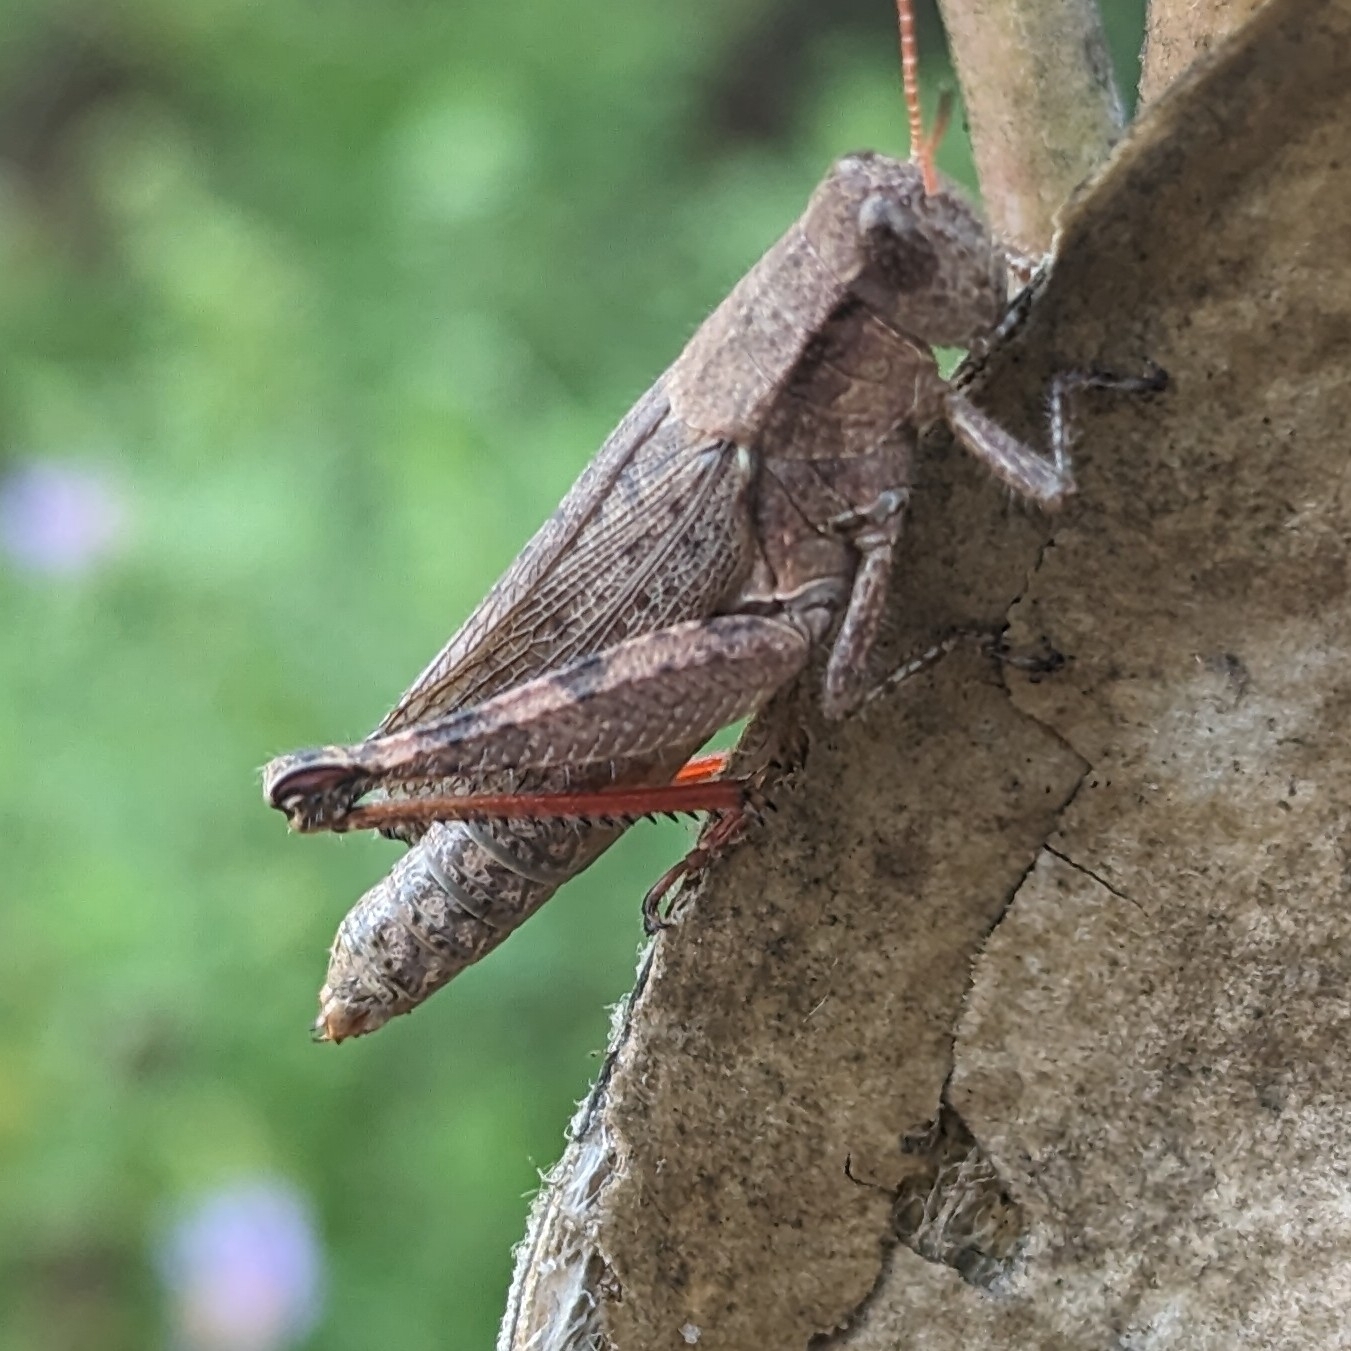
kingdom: Animalia
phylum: Arthropoda
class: Insecta
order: Orthoptera
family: Acrididae
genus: Melanoplus
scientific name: Melanoplus scudderi
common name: Scudder's short-winged locust
